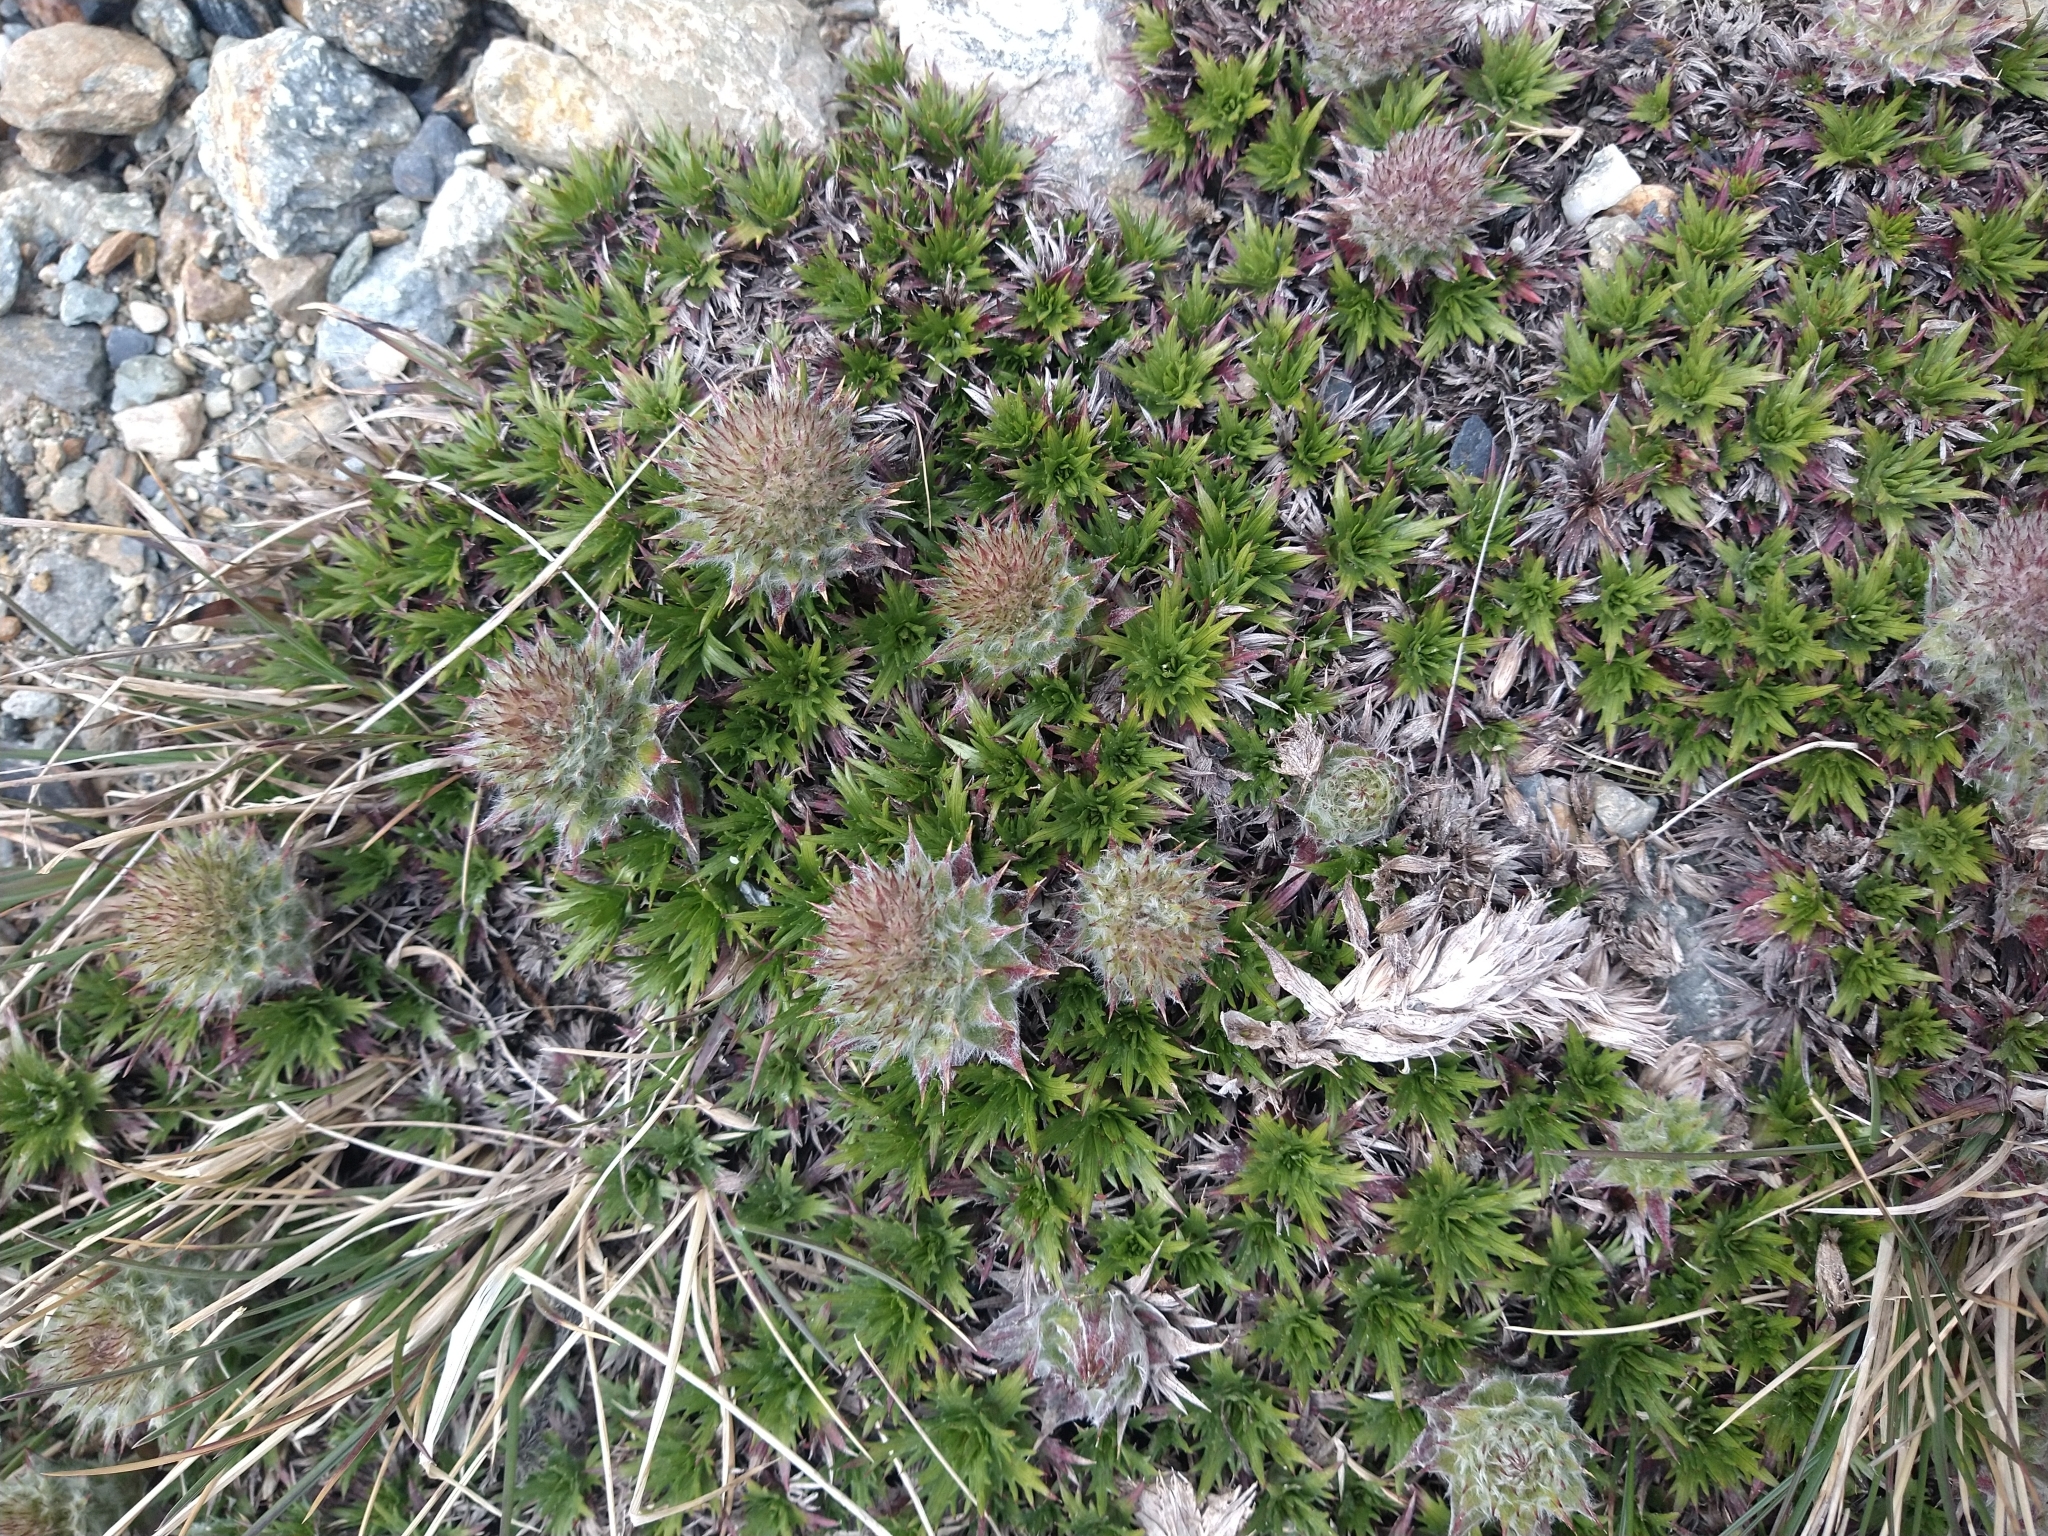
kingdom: Plantae
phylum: Tracheophyta
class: Magnoliopsida
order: Asterales
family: Asteraceae
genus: Nassauvia
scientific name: Nassauvia magellanica
